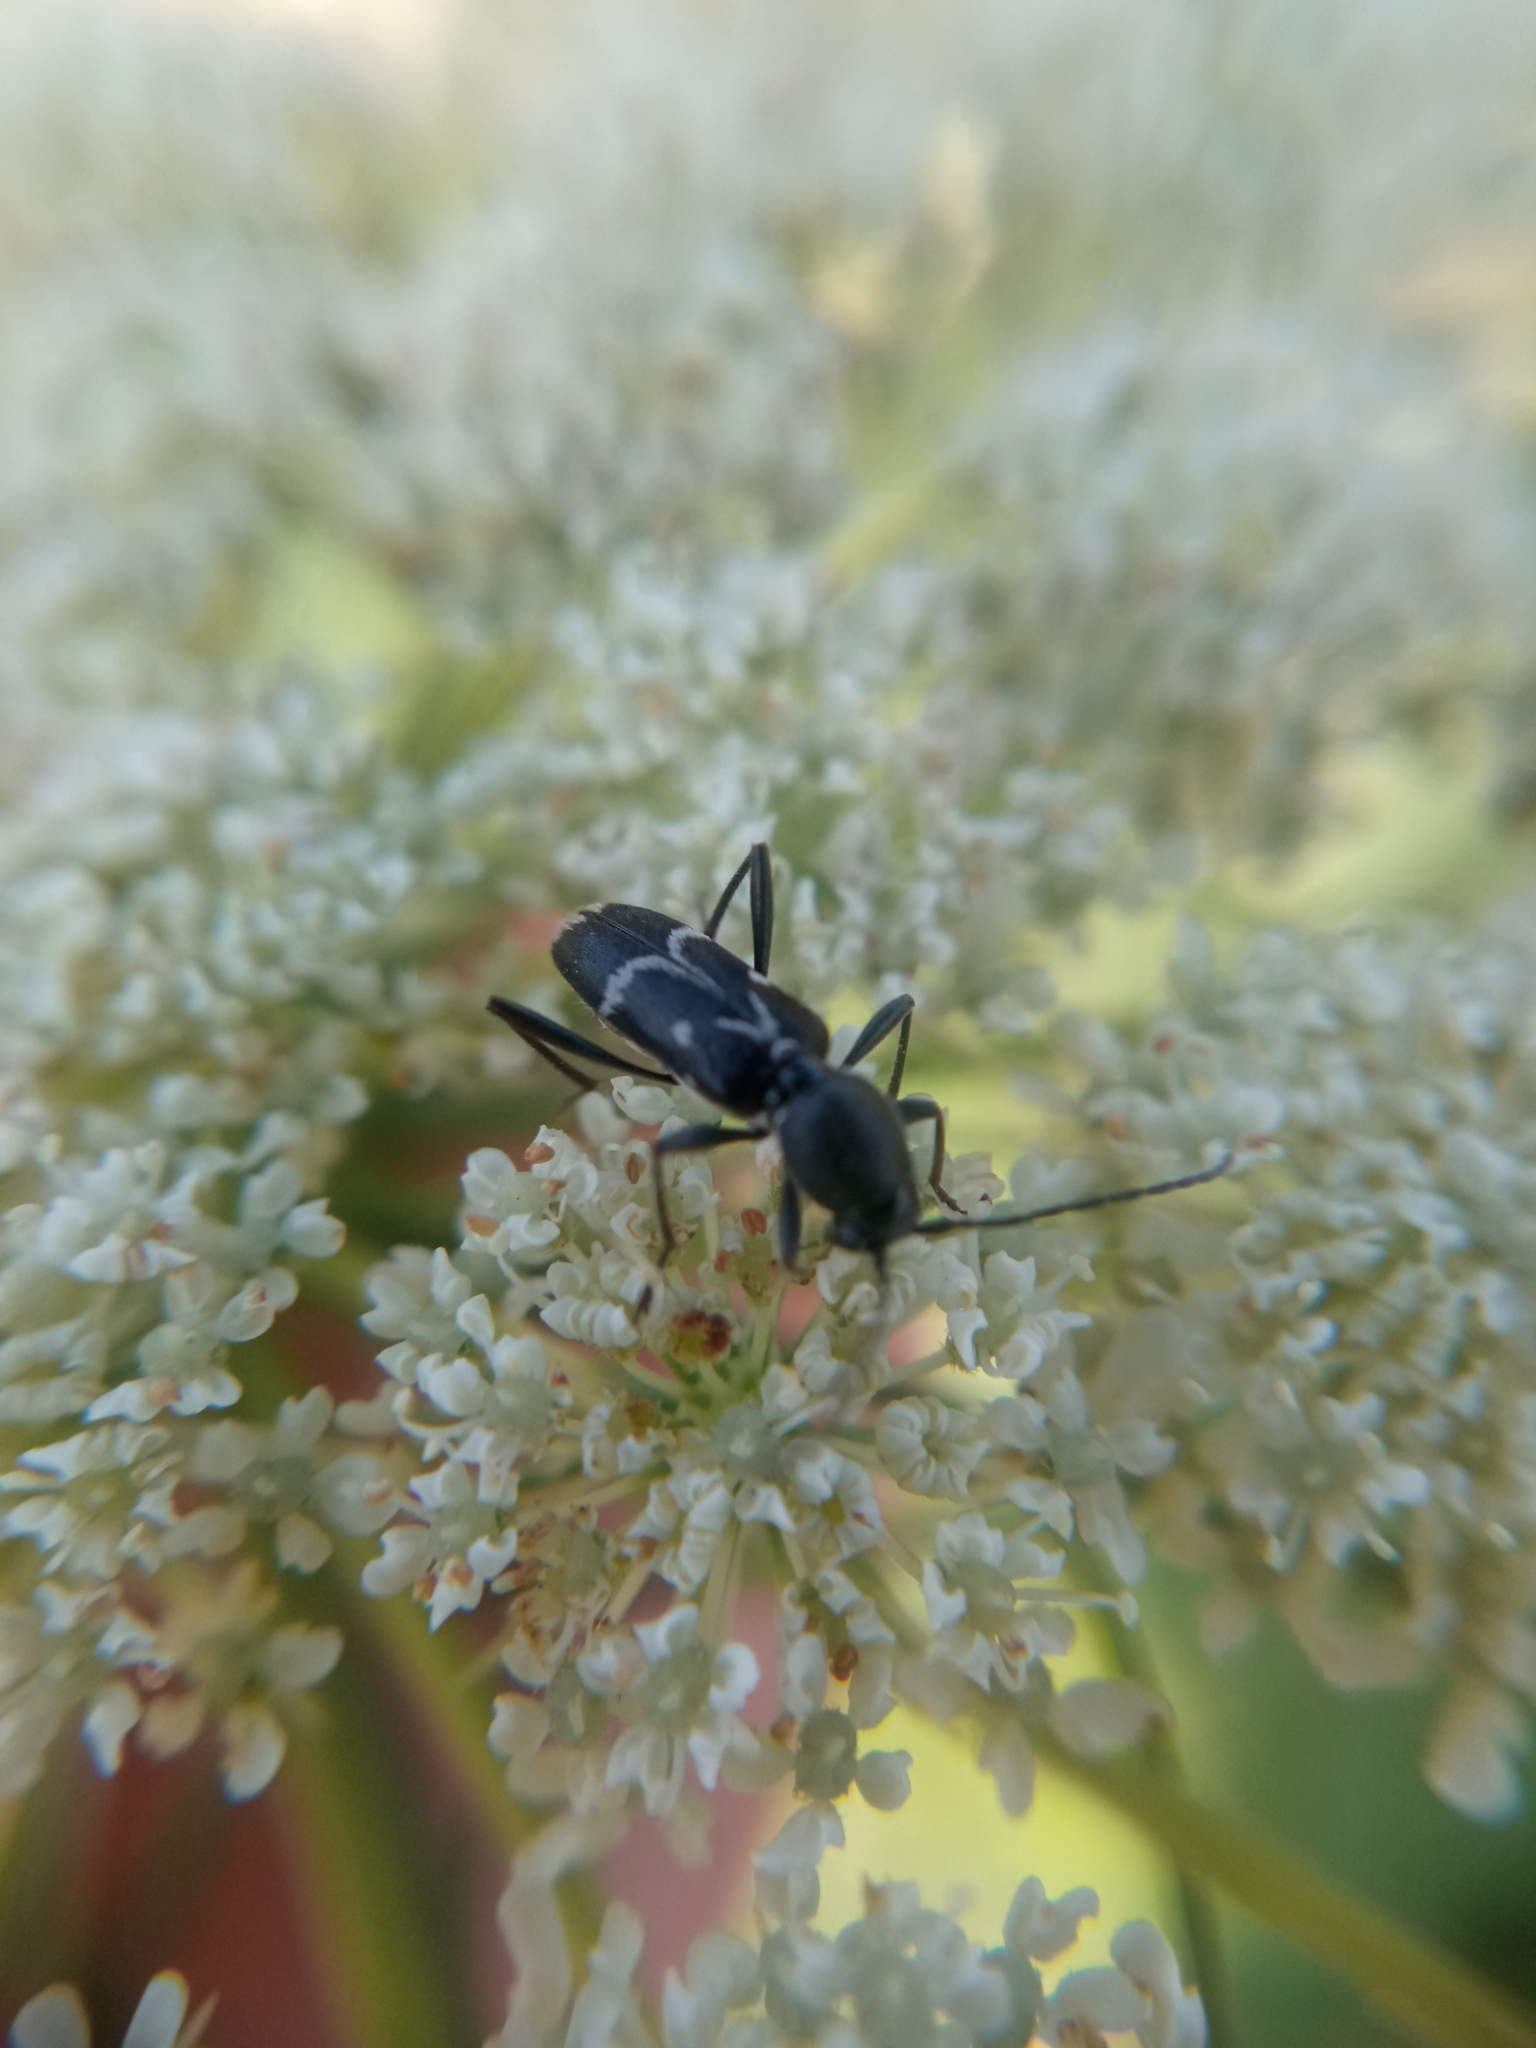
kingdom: Animalia
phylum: Arthropoda
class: Insecta
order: Coleoptera
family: Cerambycidae
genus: Chlorophorus
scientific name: Chlorophorus sartor
